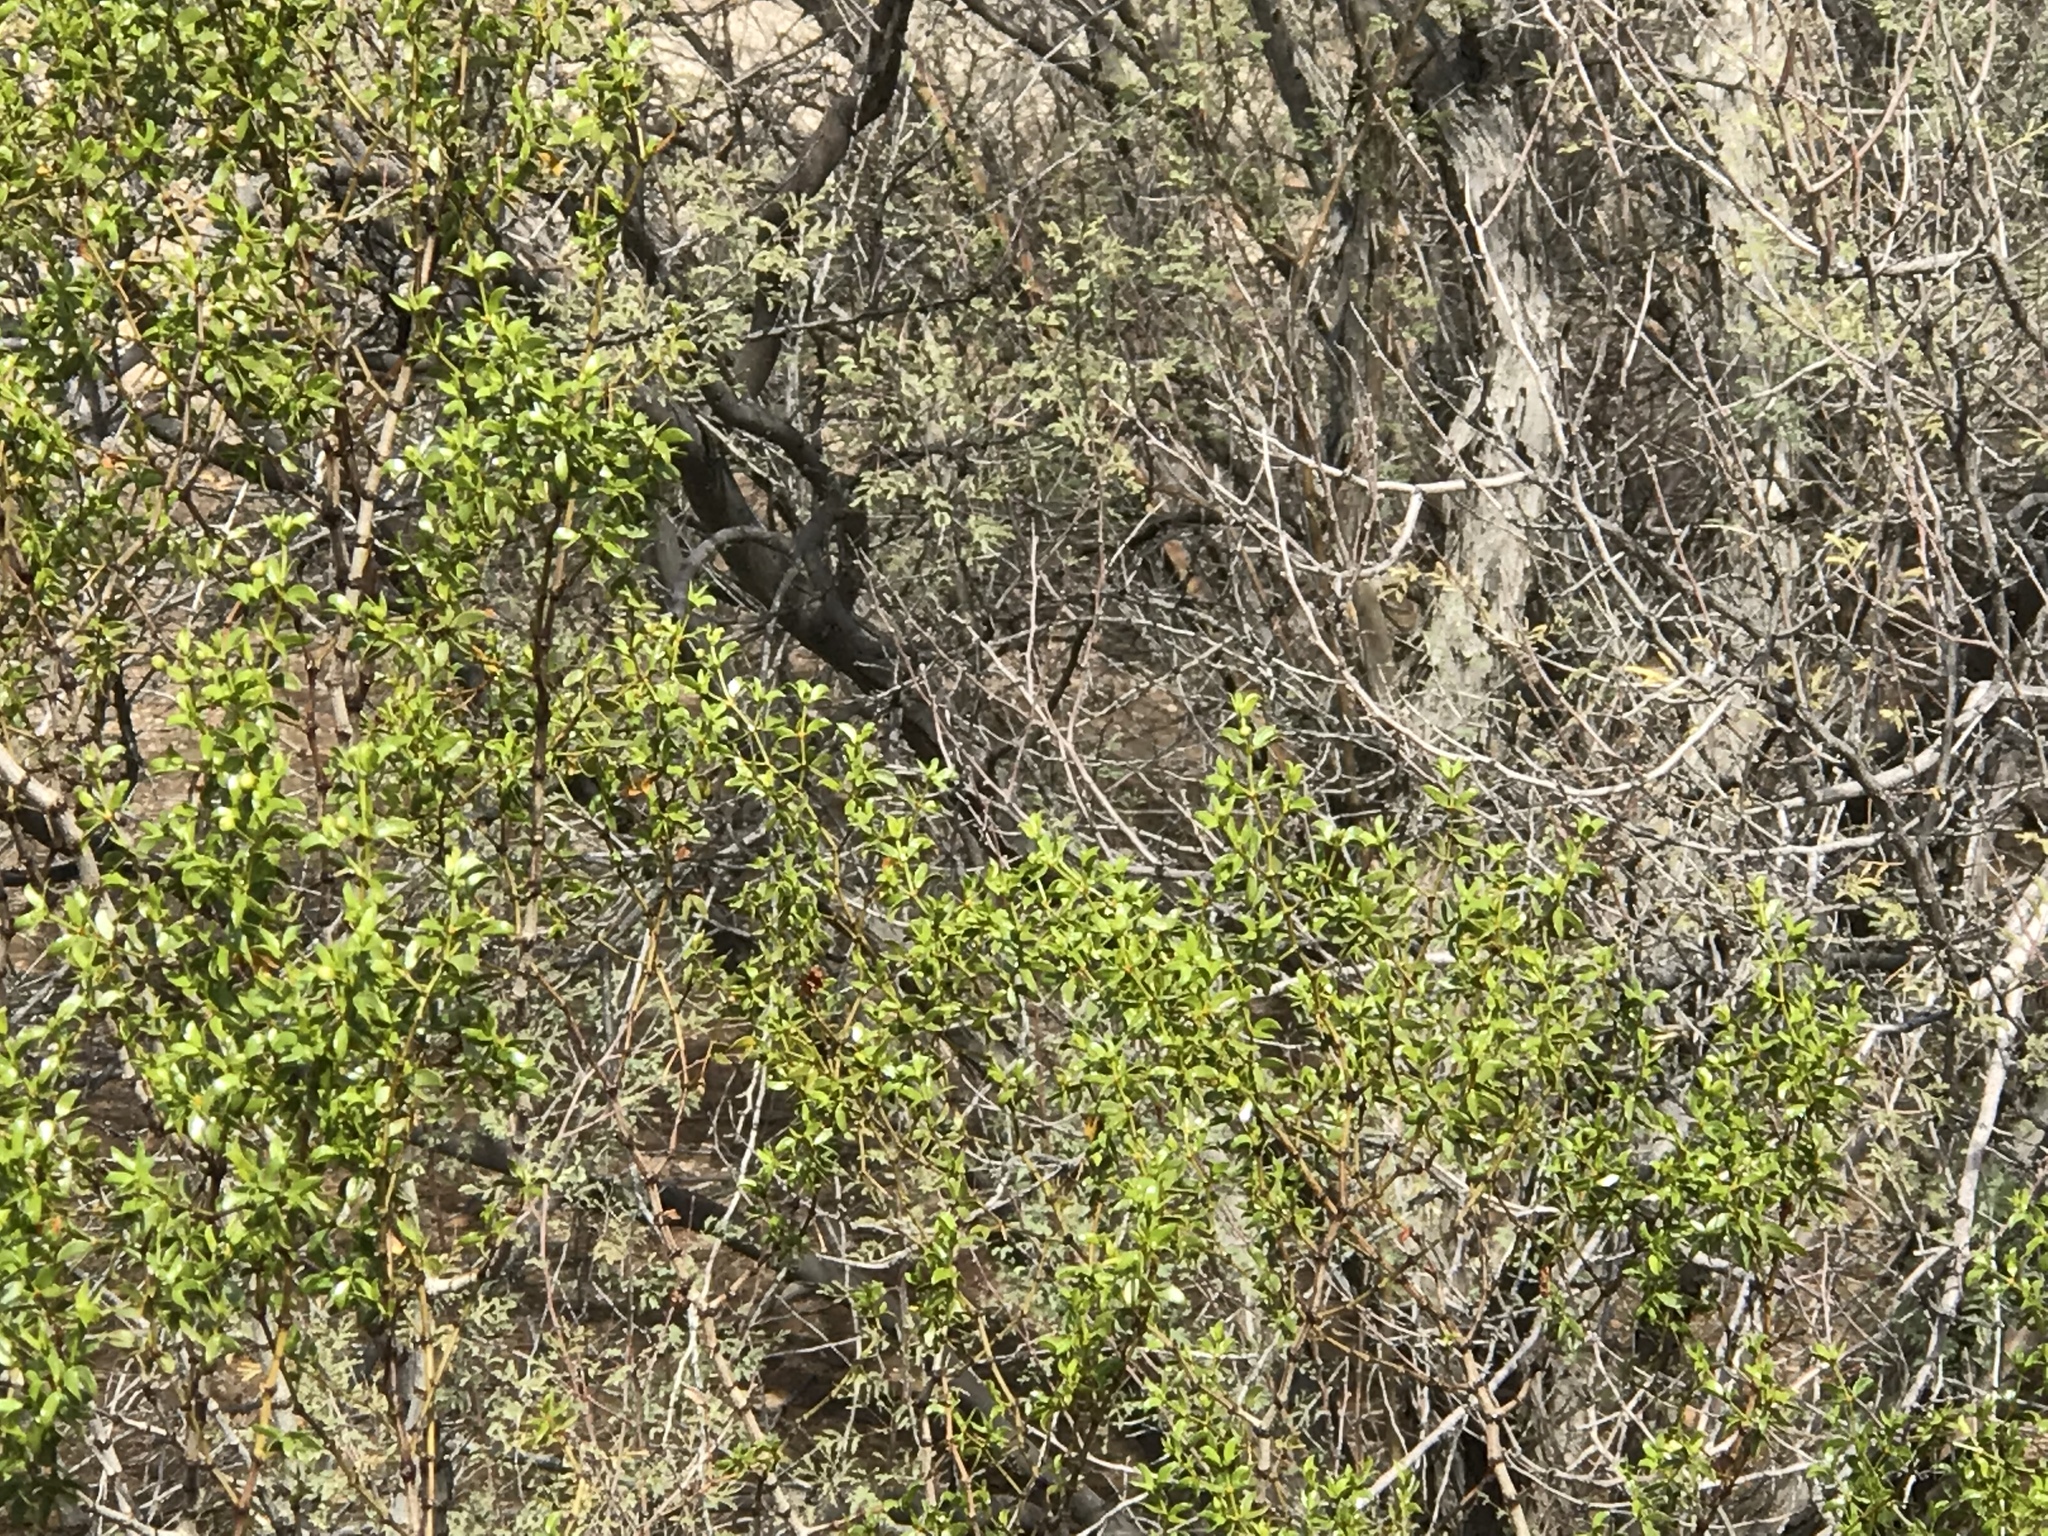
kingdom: Plantae
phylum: Tracheophyta
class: Magnoliopsida
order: Zygophyllales
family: Zygophyllaceae
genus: Larrea
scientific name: Larrea tridentata
